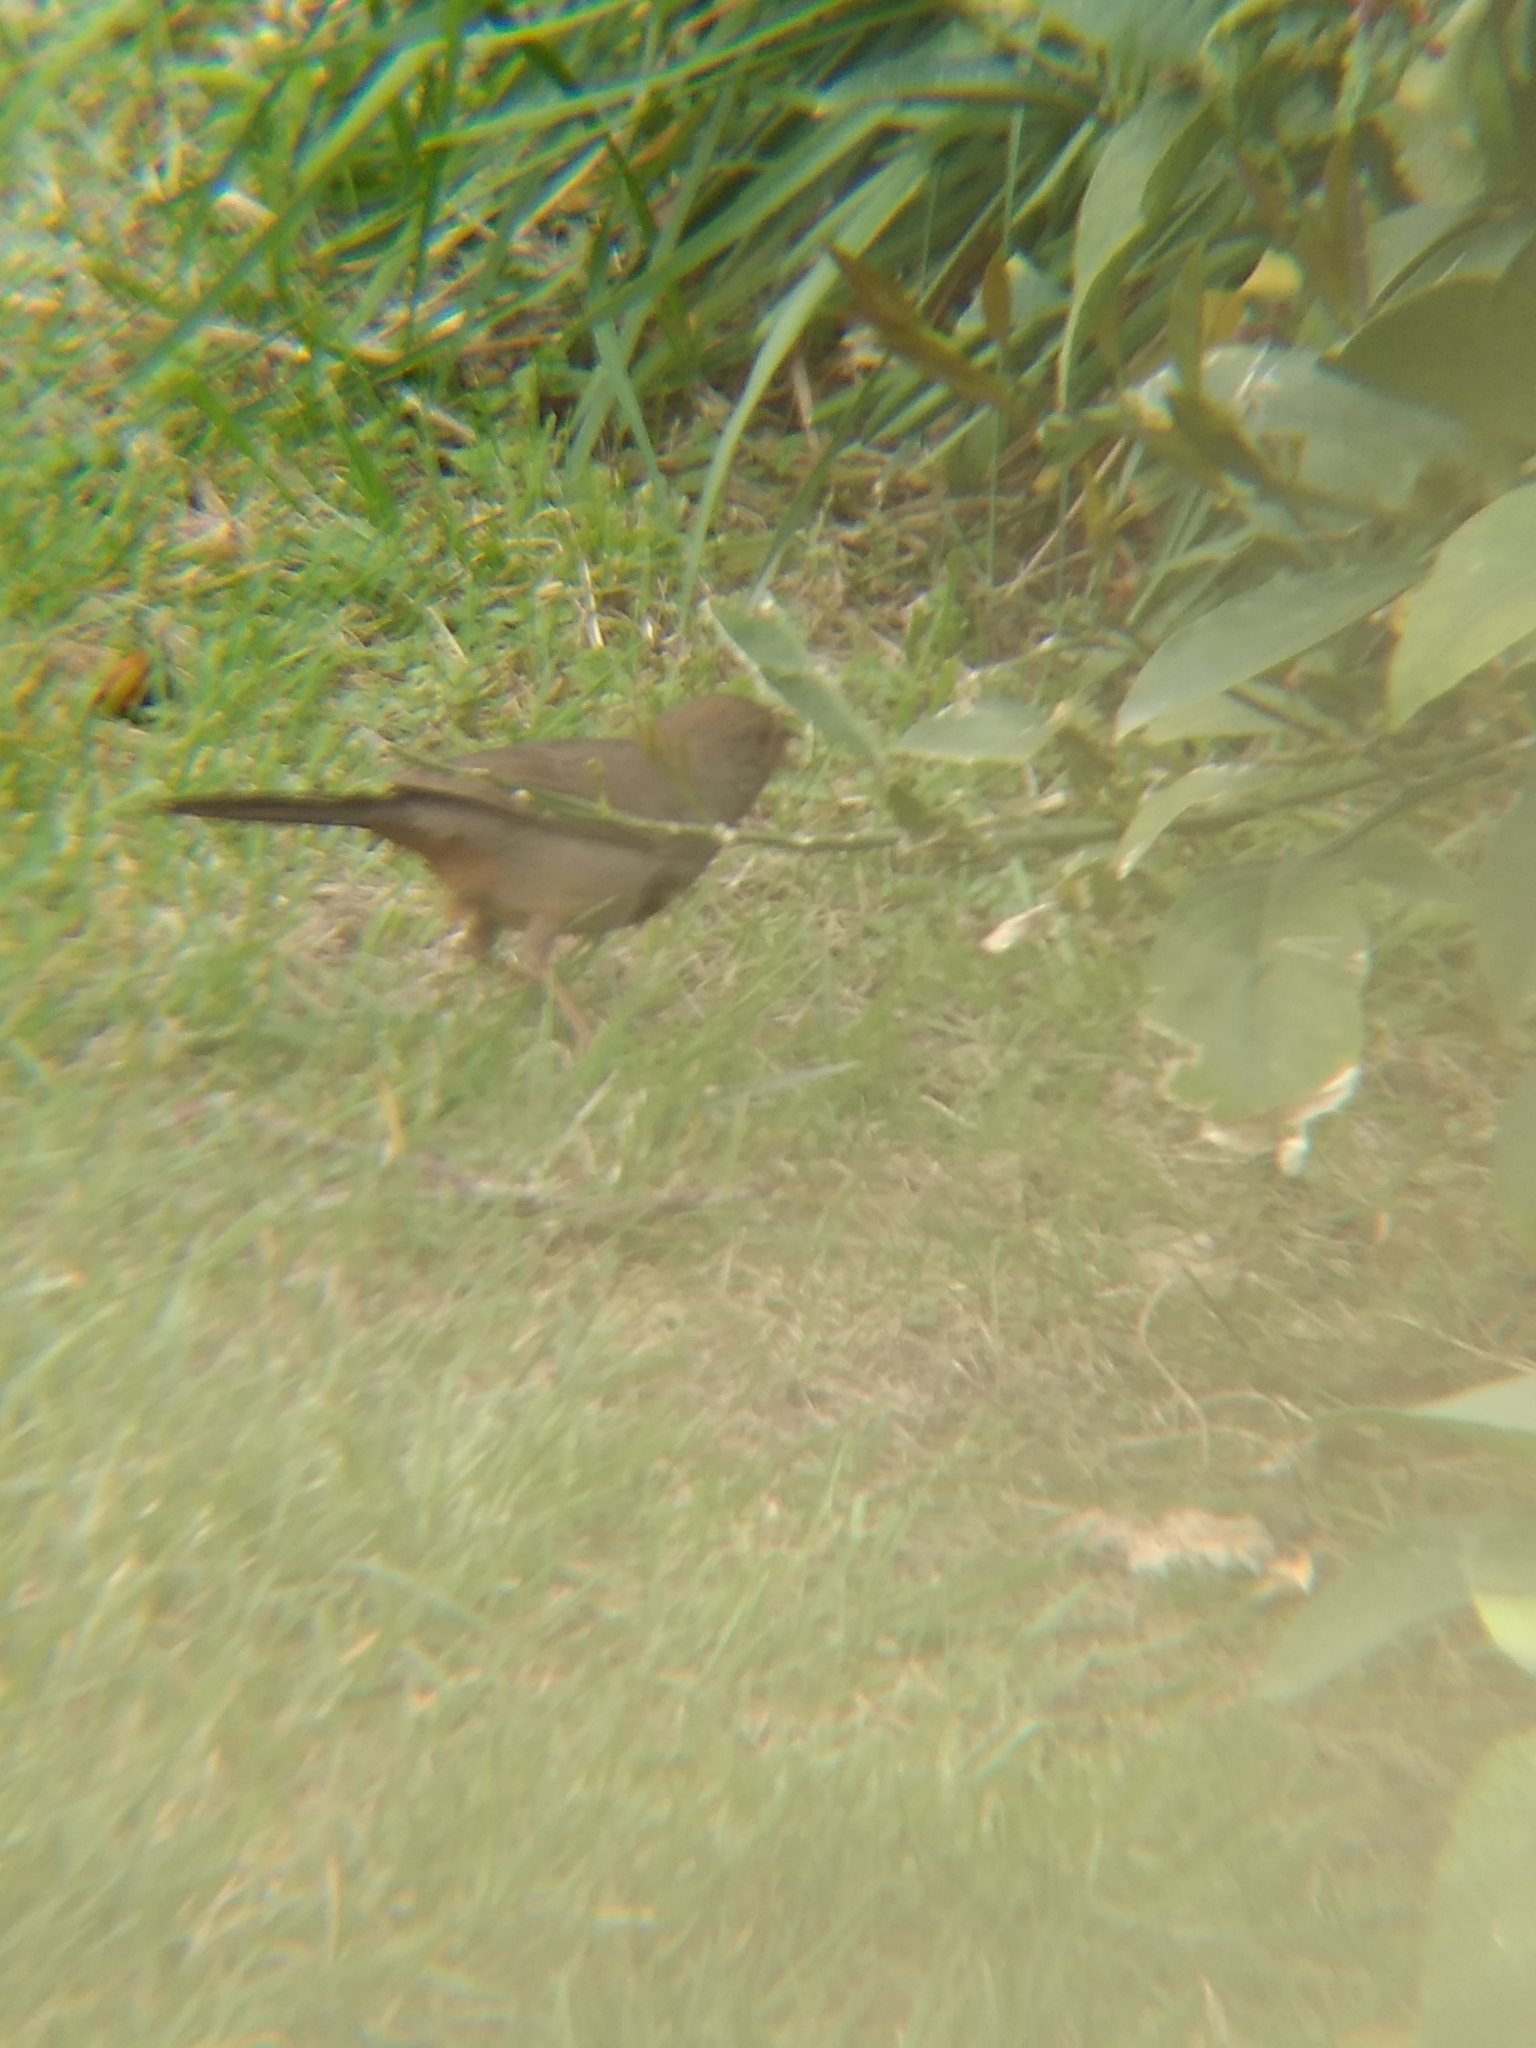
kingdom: Animalia
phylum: Chordata
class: Aves
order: Passeriformes
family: Passerellidae
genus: Melozone
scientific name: Melozone crissalis
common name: California towhee
